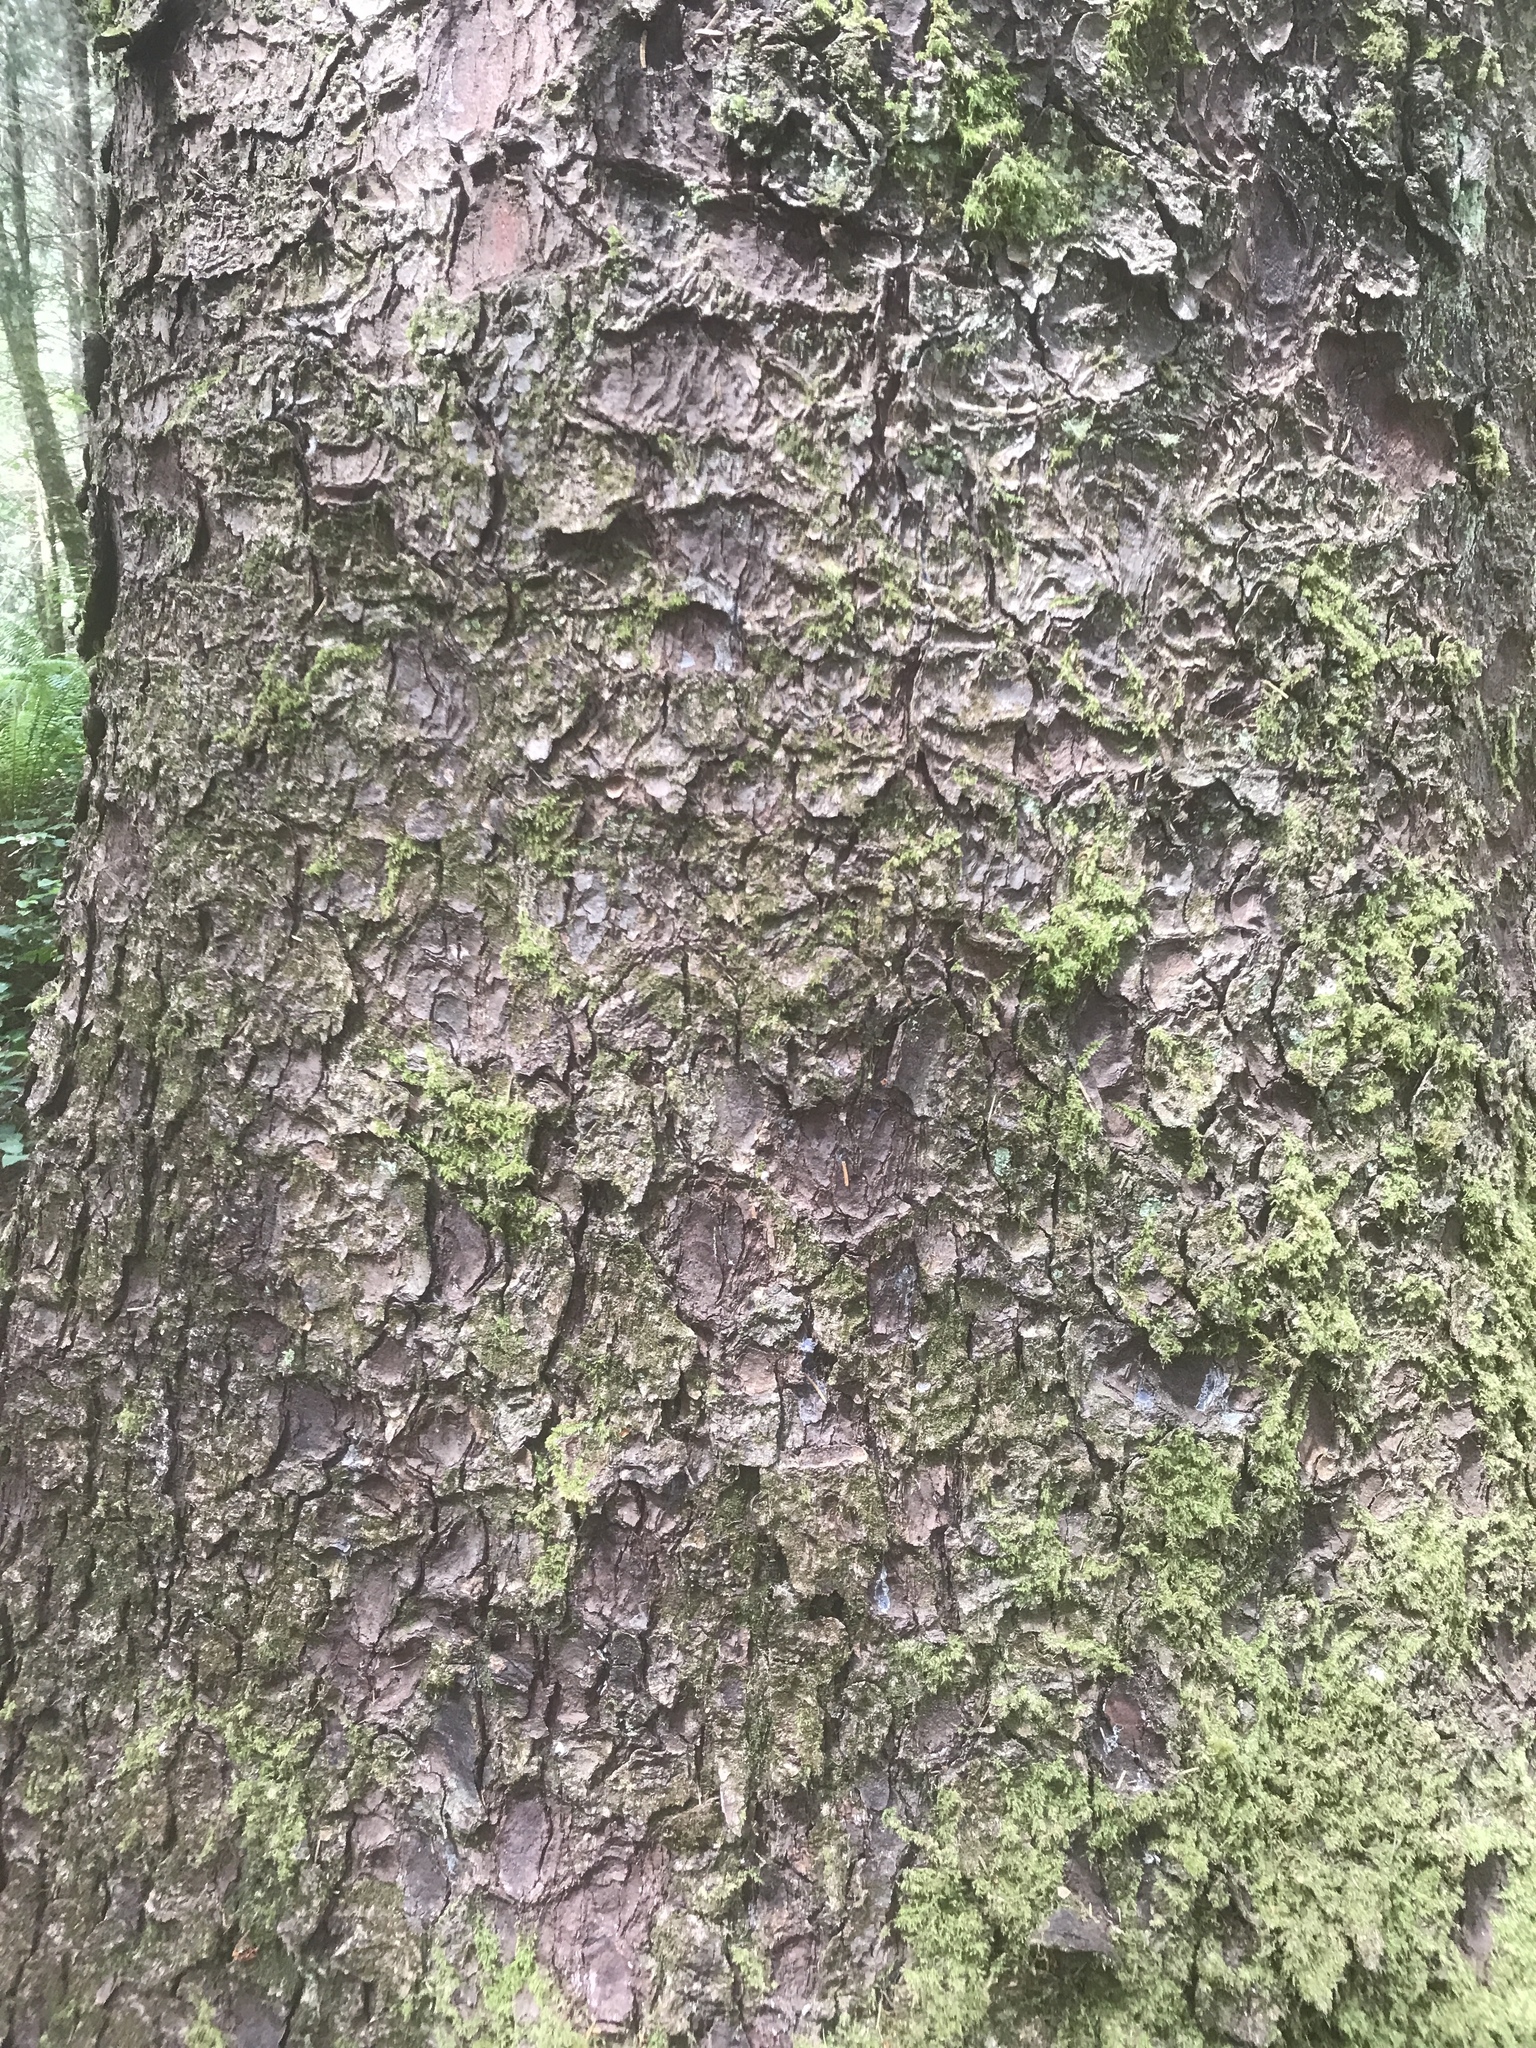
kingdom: Plantae
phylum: Tracheophyta
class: Pinopsida
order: Pinales
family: Pinaceae
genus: Picea
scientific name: Picea sitchensis
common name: Sitka spruce
